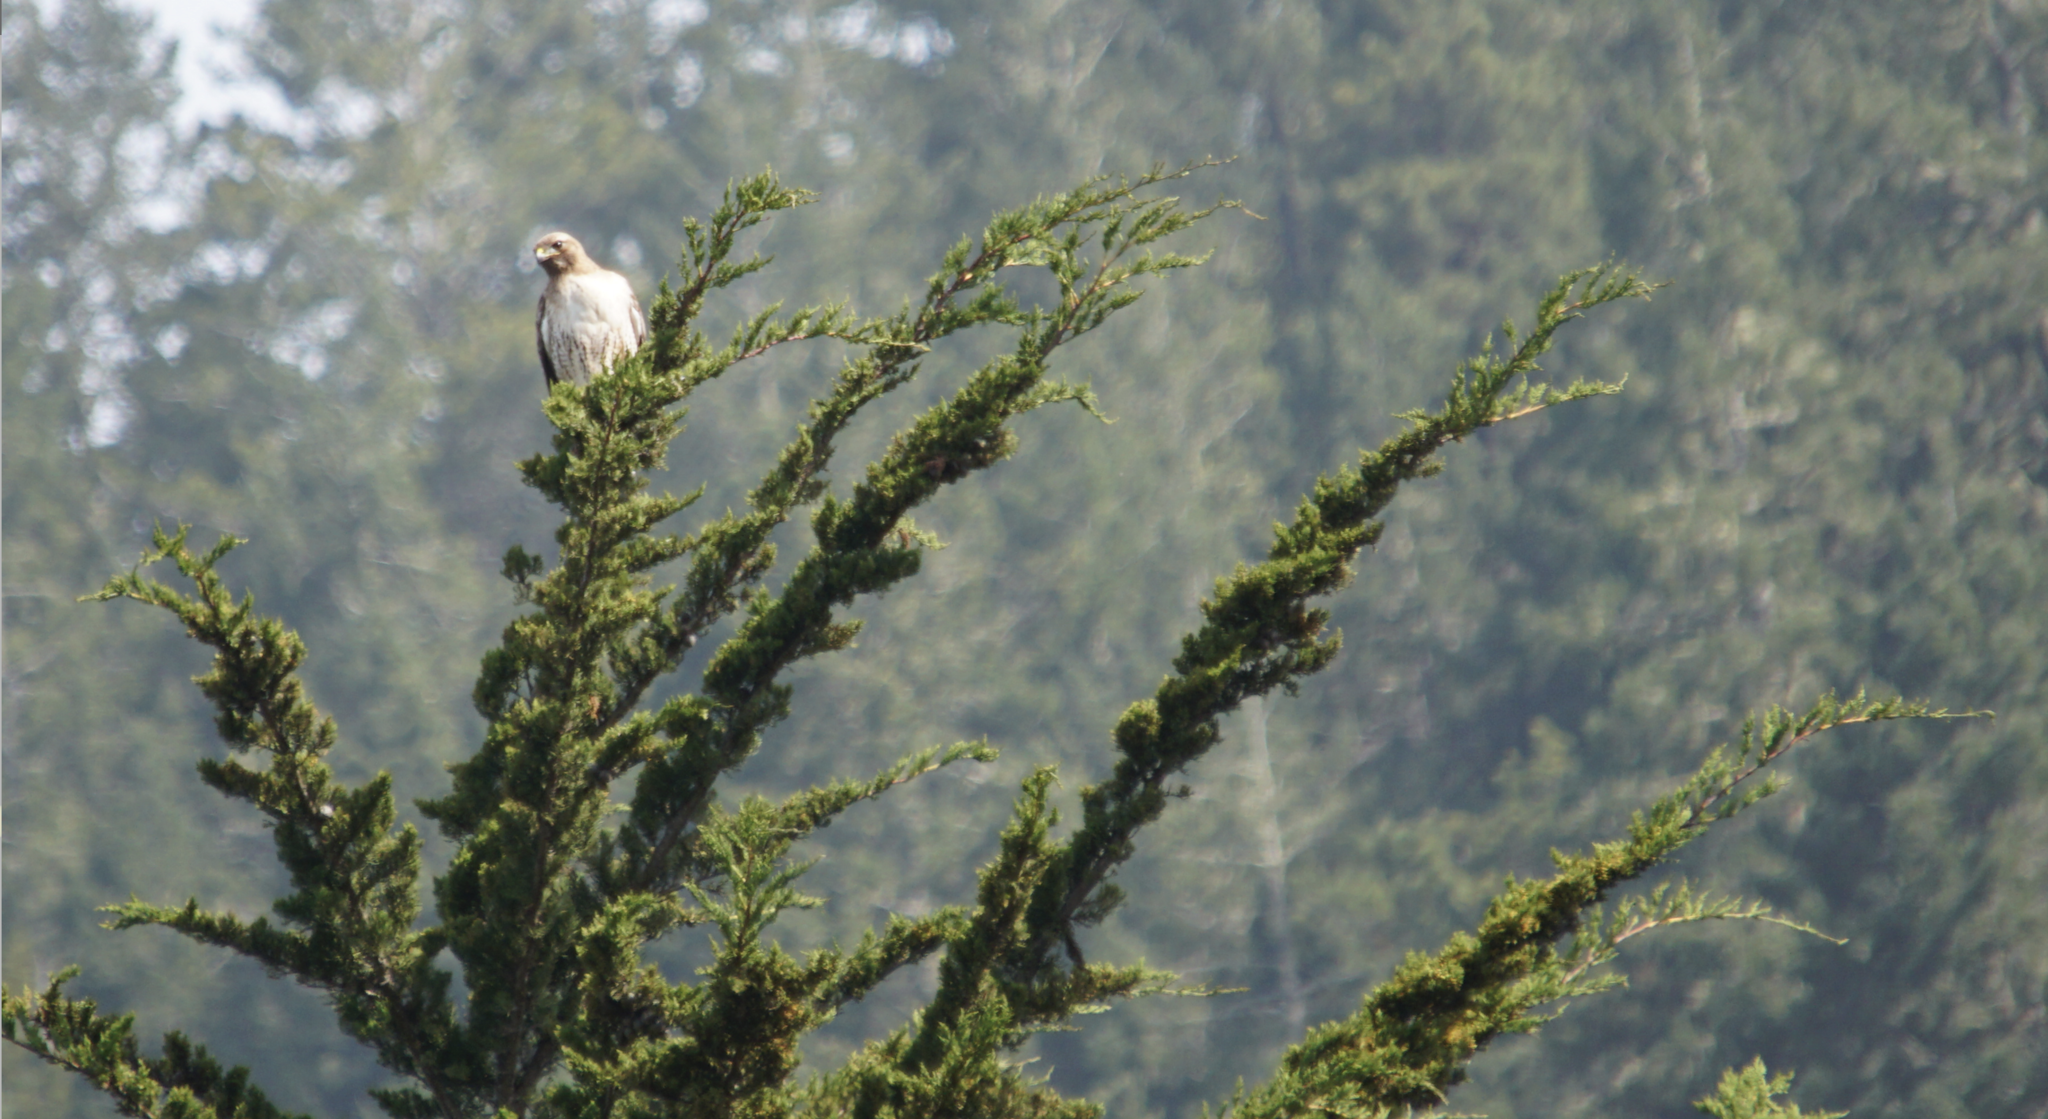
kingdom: Animalia
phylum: Chordata
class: Aves
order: Accipitriformes
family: Accipitridae
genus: Buteo
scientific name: Buteo jamaicensis
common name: Red-tailed hawk
